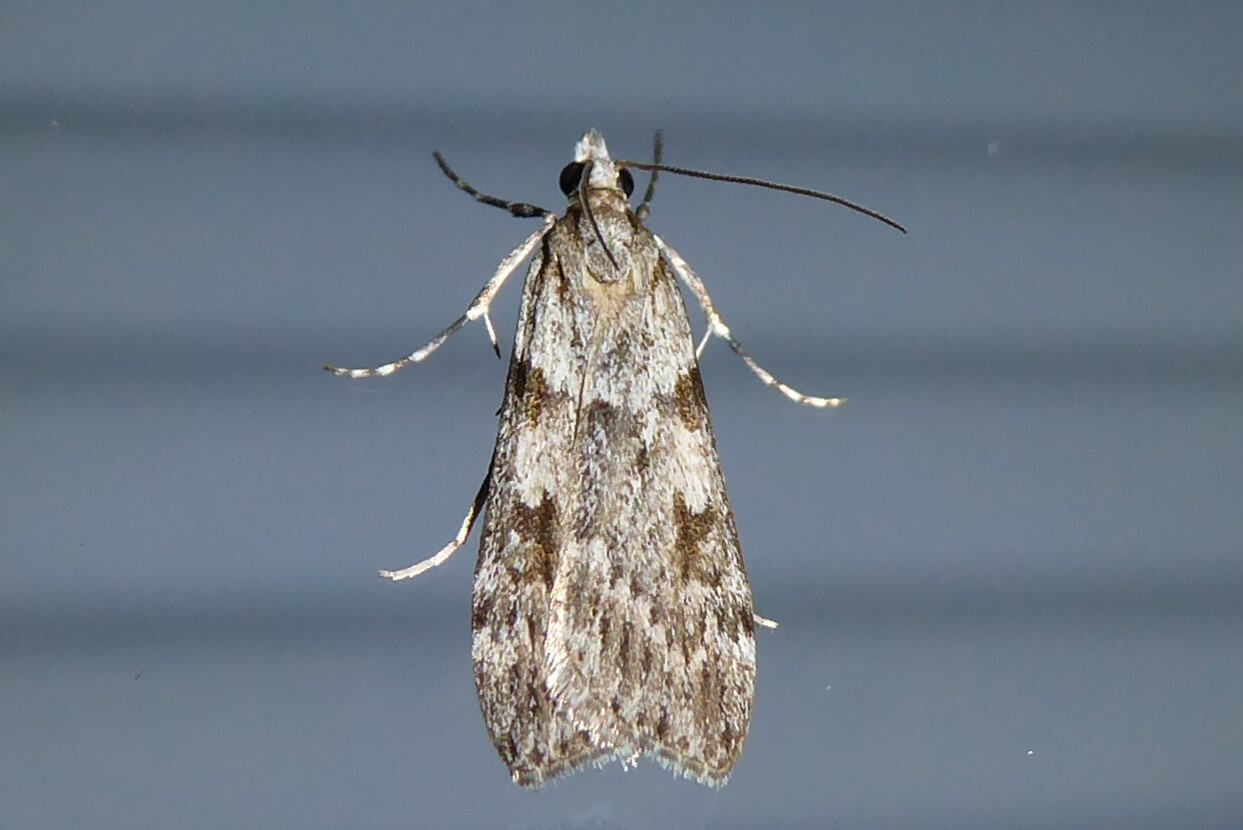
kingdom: Animalia
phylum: Arthropoda
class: Insecta
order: Lepidoptera
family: Crambidae
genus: Scoparia
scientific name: Scoparia halopis
